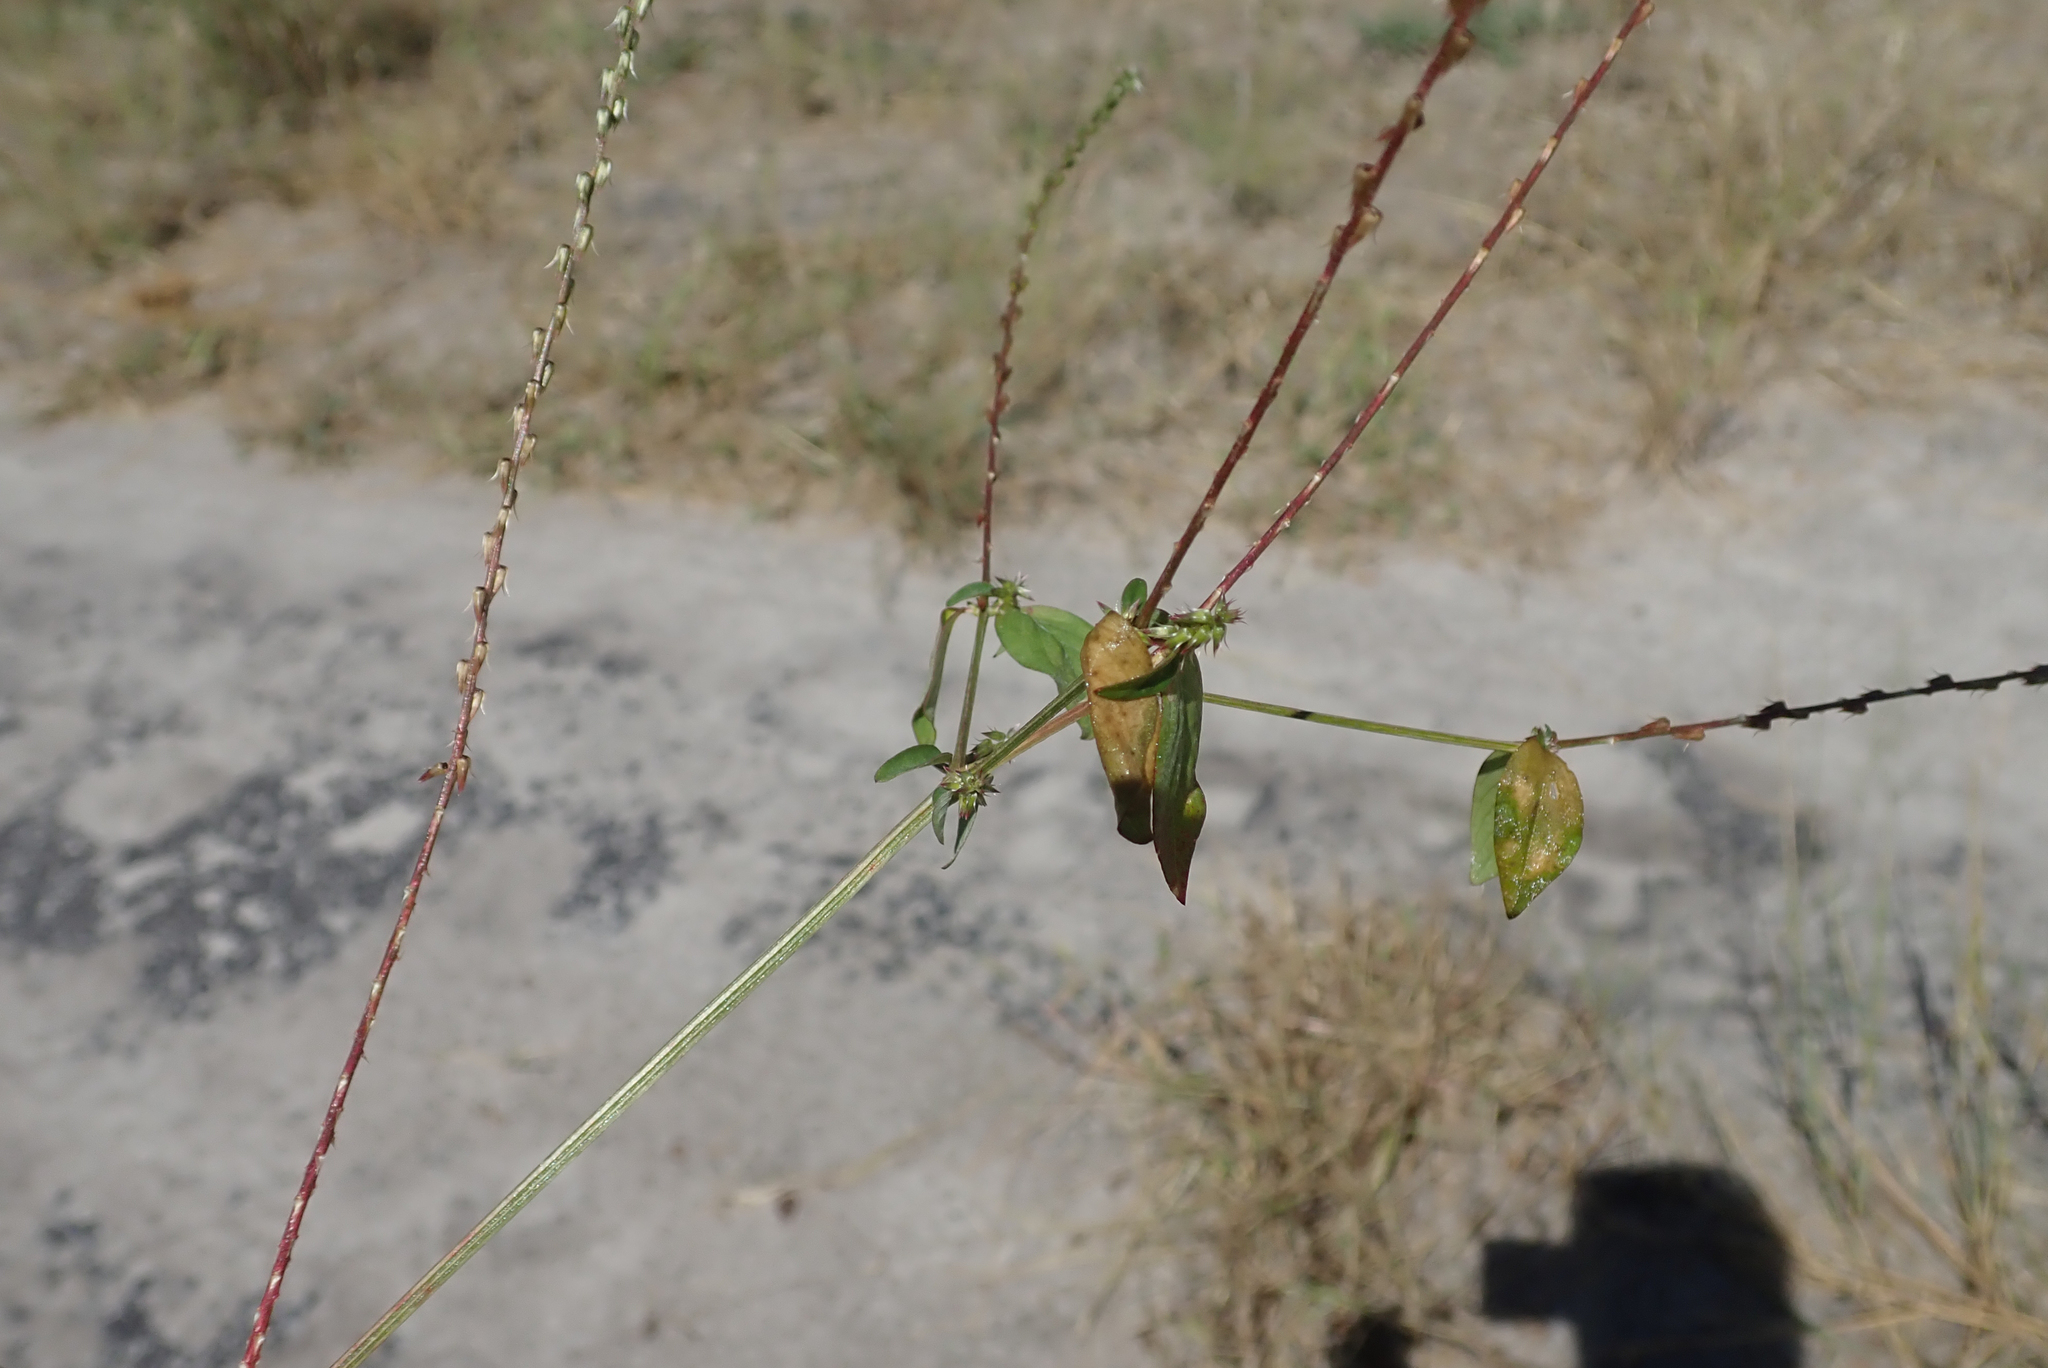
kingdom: Plantae
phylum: Tracheophyta
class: Magnoliopsida
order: Caryophyllales
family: Amaranthaceae
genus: Achyranthes
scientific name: Achyranthes aspera
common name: Devil's horsewhip
